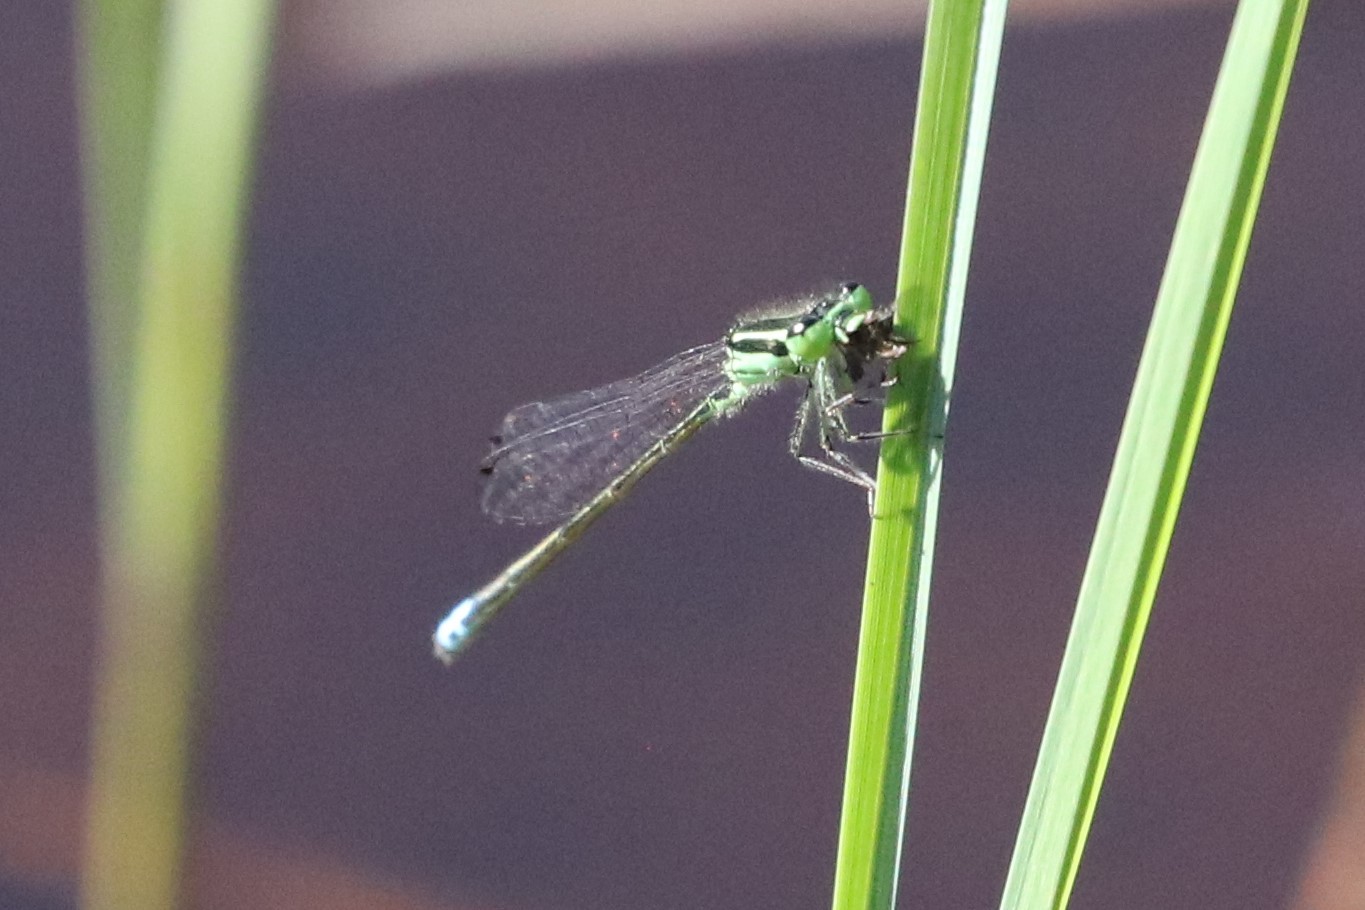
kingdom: Animalia
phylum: Arthropoda
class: Insecta
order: Odonata
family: Coenagrionidae
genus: Ischnura
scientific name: Ischnura verticalis
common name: Eastern forktail
